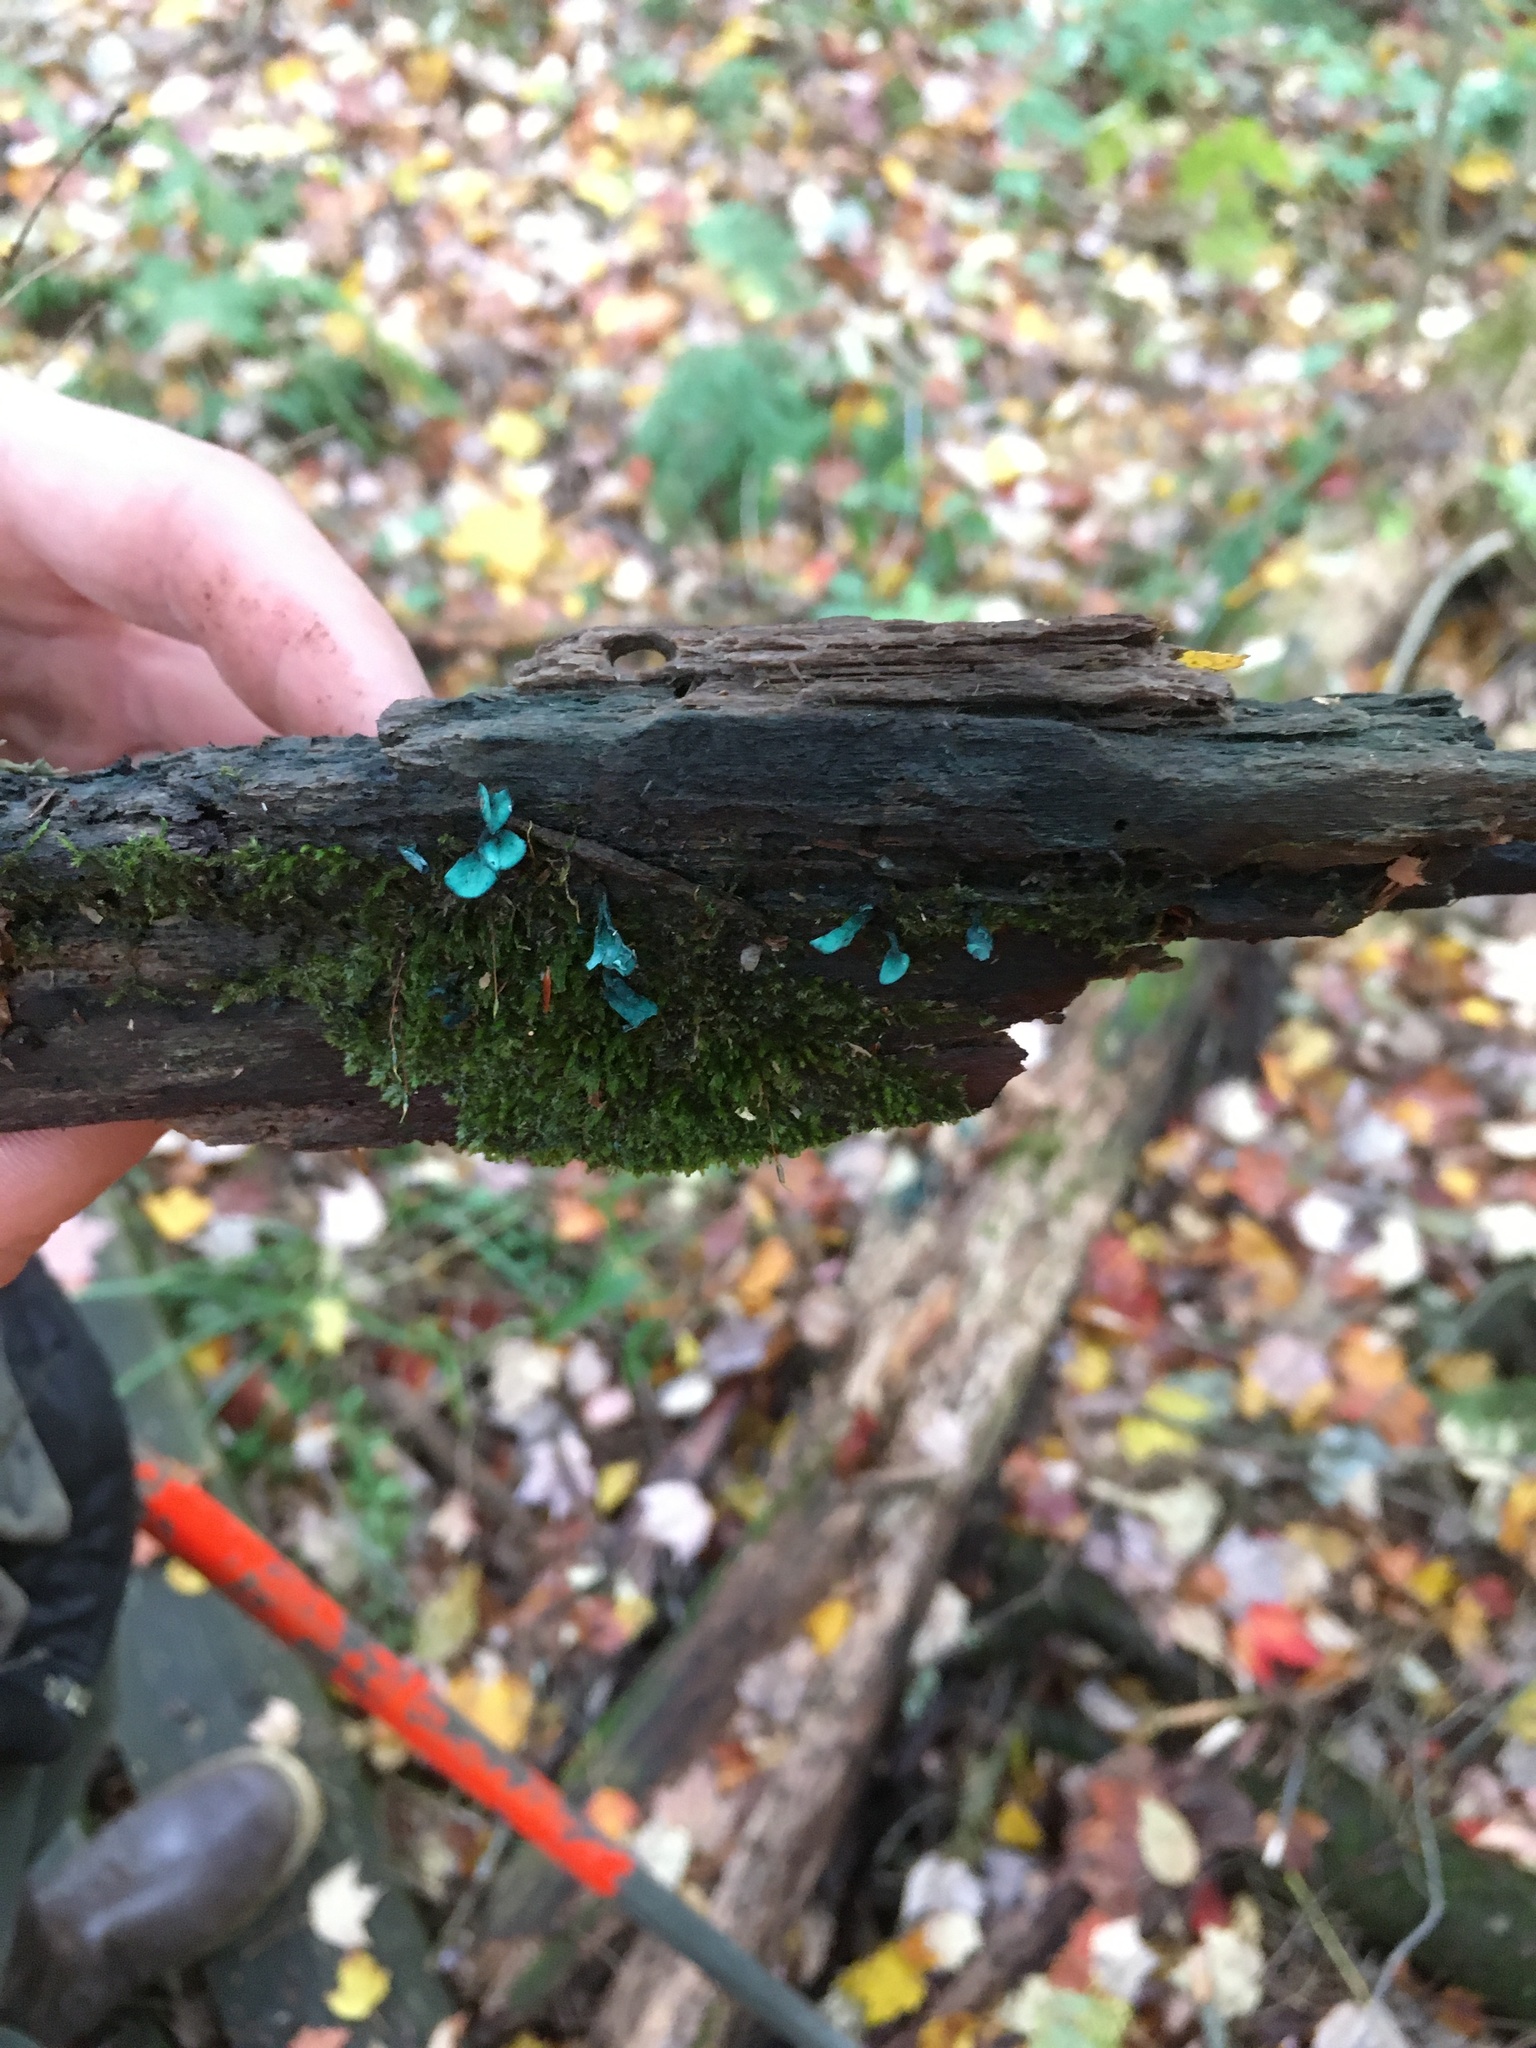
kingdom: Fungi
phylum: Ascomycota
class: Leotiomycetes
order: Helotiales
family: Chlorociboriaceae
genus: Chlorociboria
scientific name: Chlorociboria
